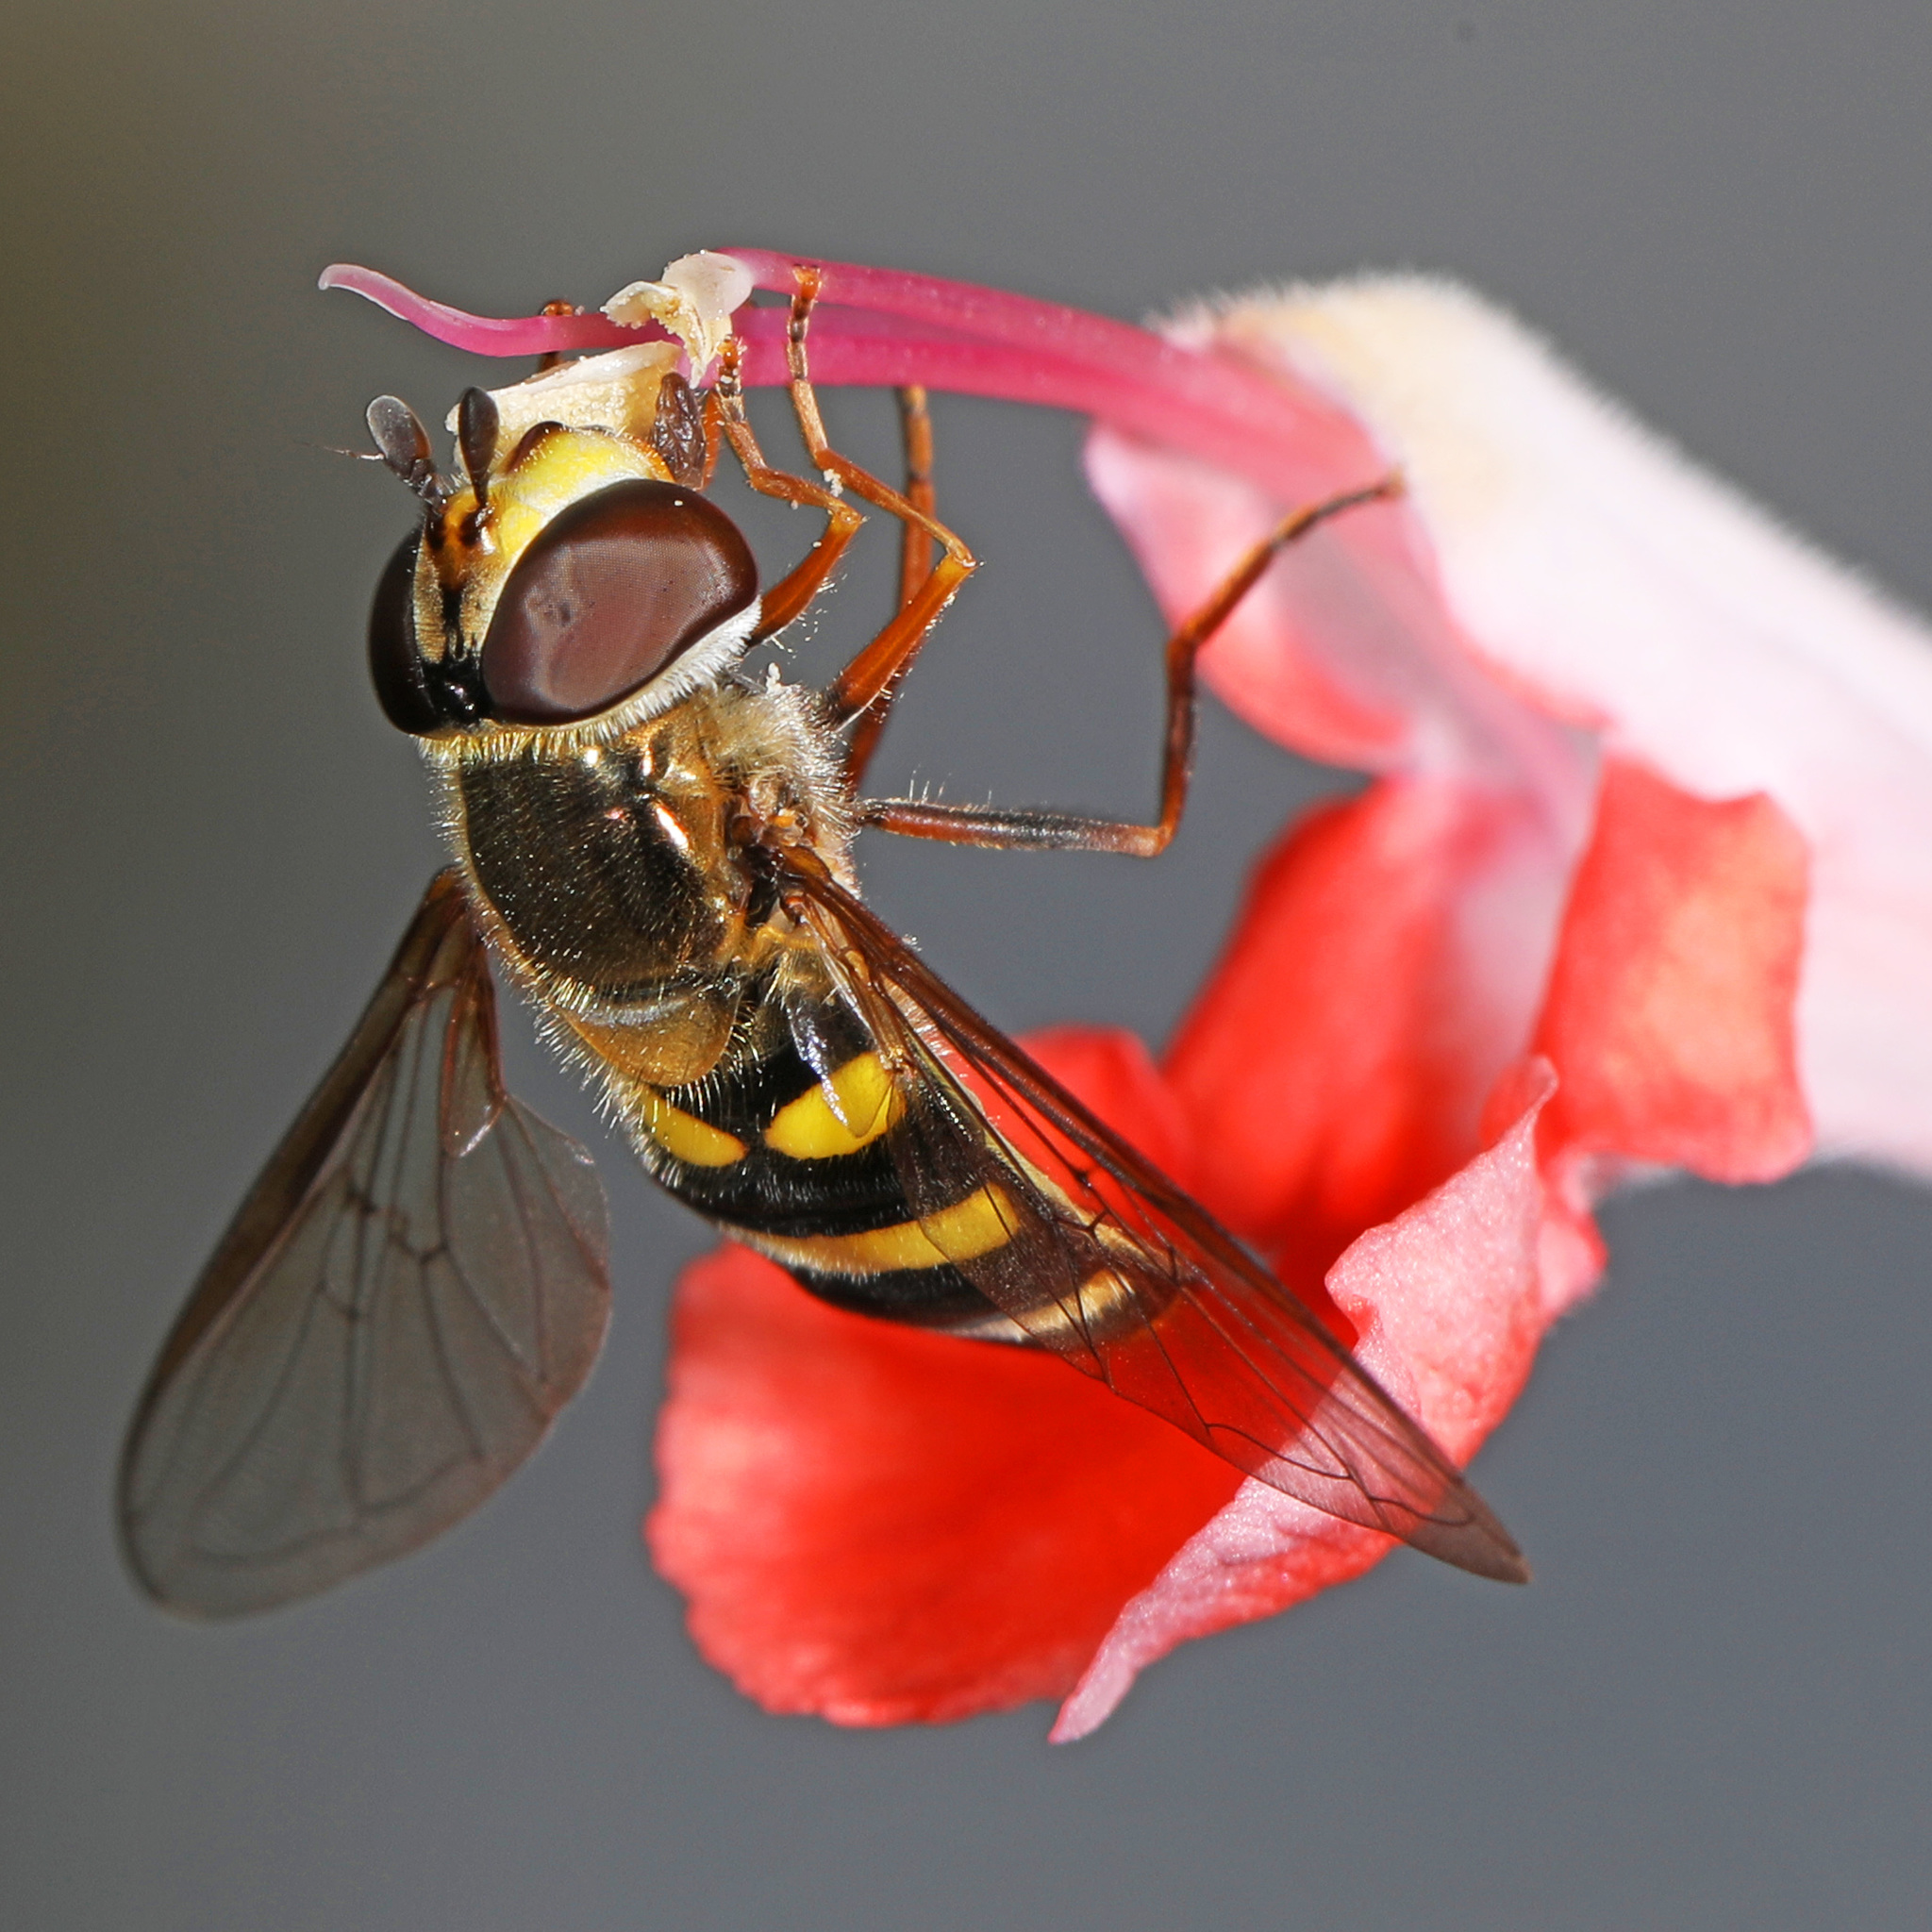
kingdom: Animalia
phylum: Arthropoda
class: Insecta
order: Diptera
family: Syrphidae
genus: Eupeodes
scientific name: Eupeodes
